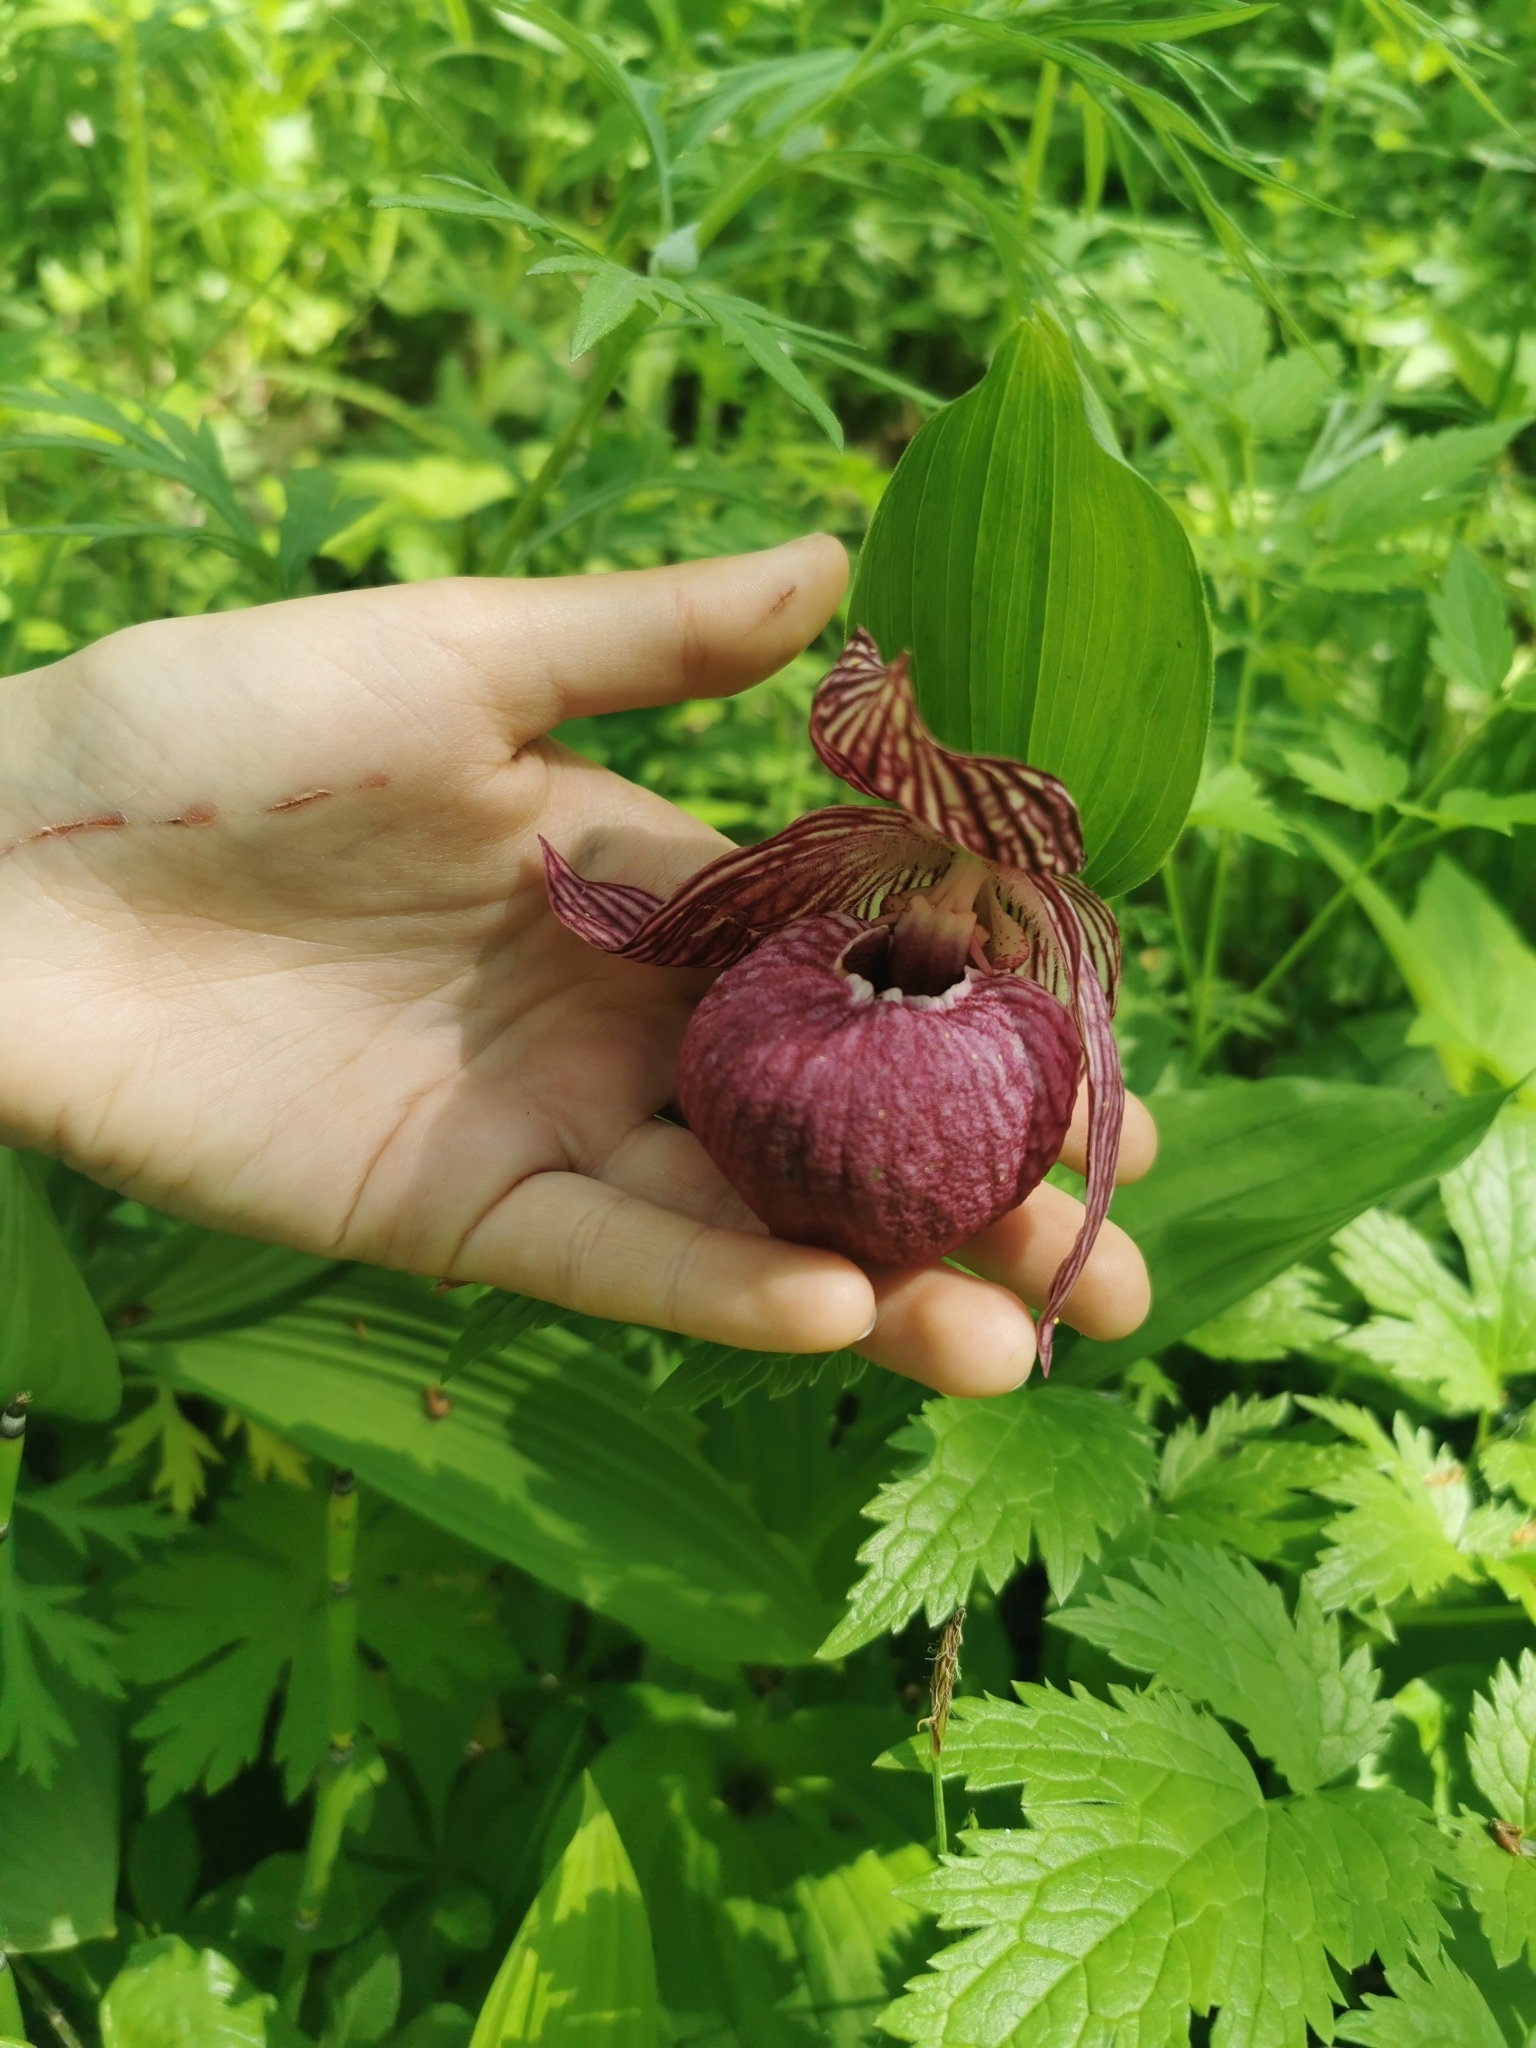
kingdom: Plantae
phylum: Tracheophyta
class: Liliopsida
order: Asparagales
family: Orchidaceae
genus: Cypripedium
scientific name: Cypripedium macranthos
